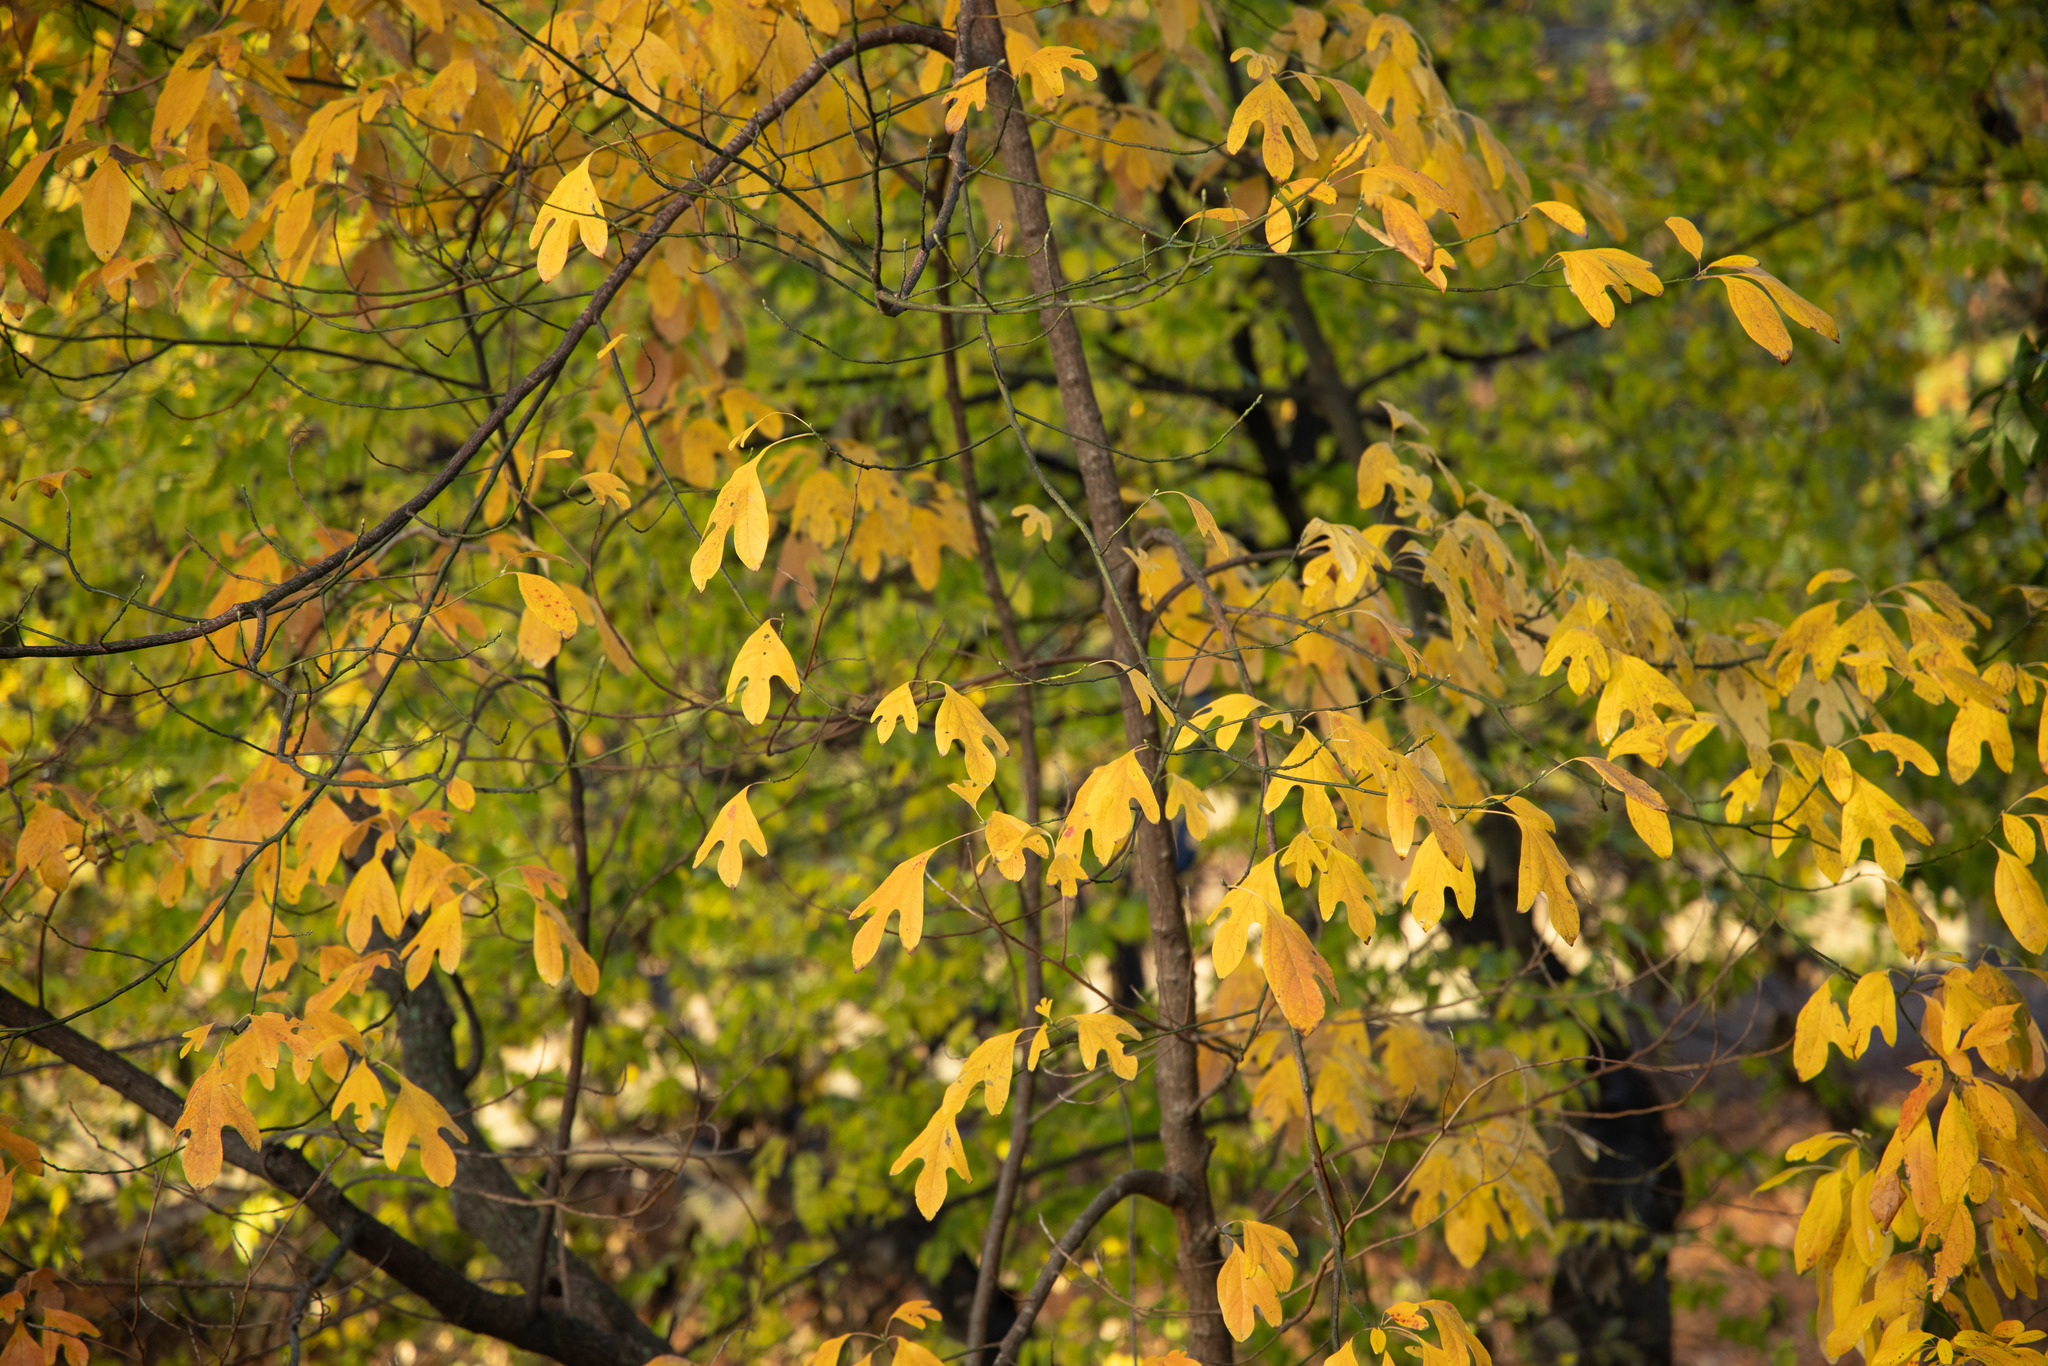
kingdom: Plantae
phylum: Tracheophyta
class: Magnoliopsida
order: Laurales
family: Lauraceae
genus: Sassafras
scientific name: Sassafras albidum
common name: Sassafras
